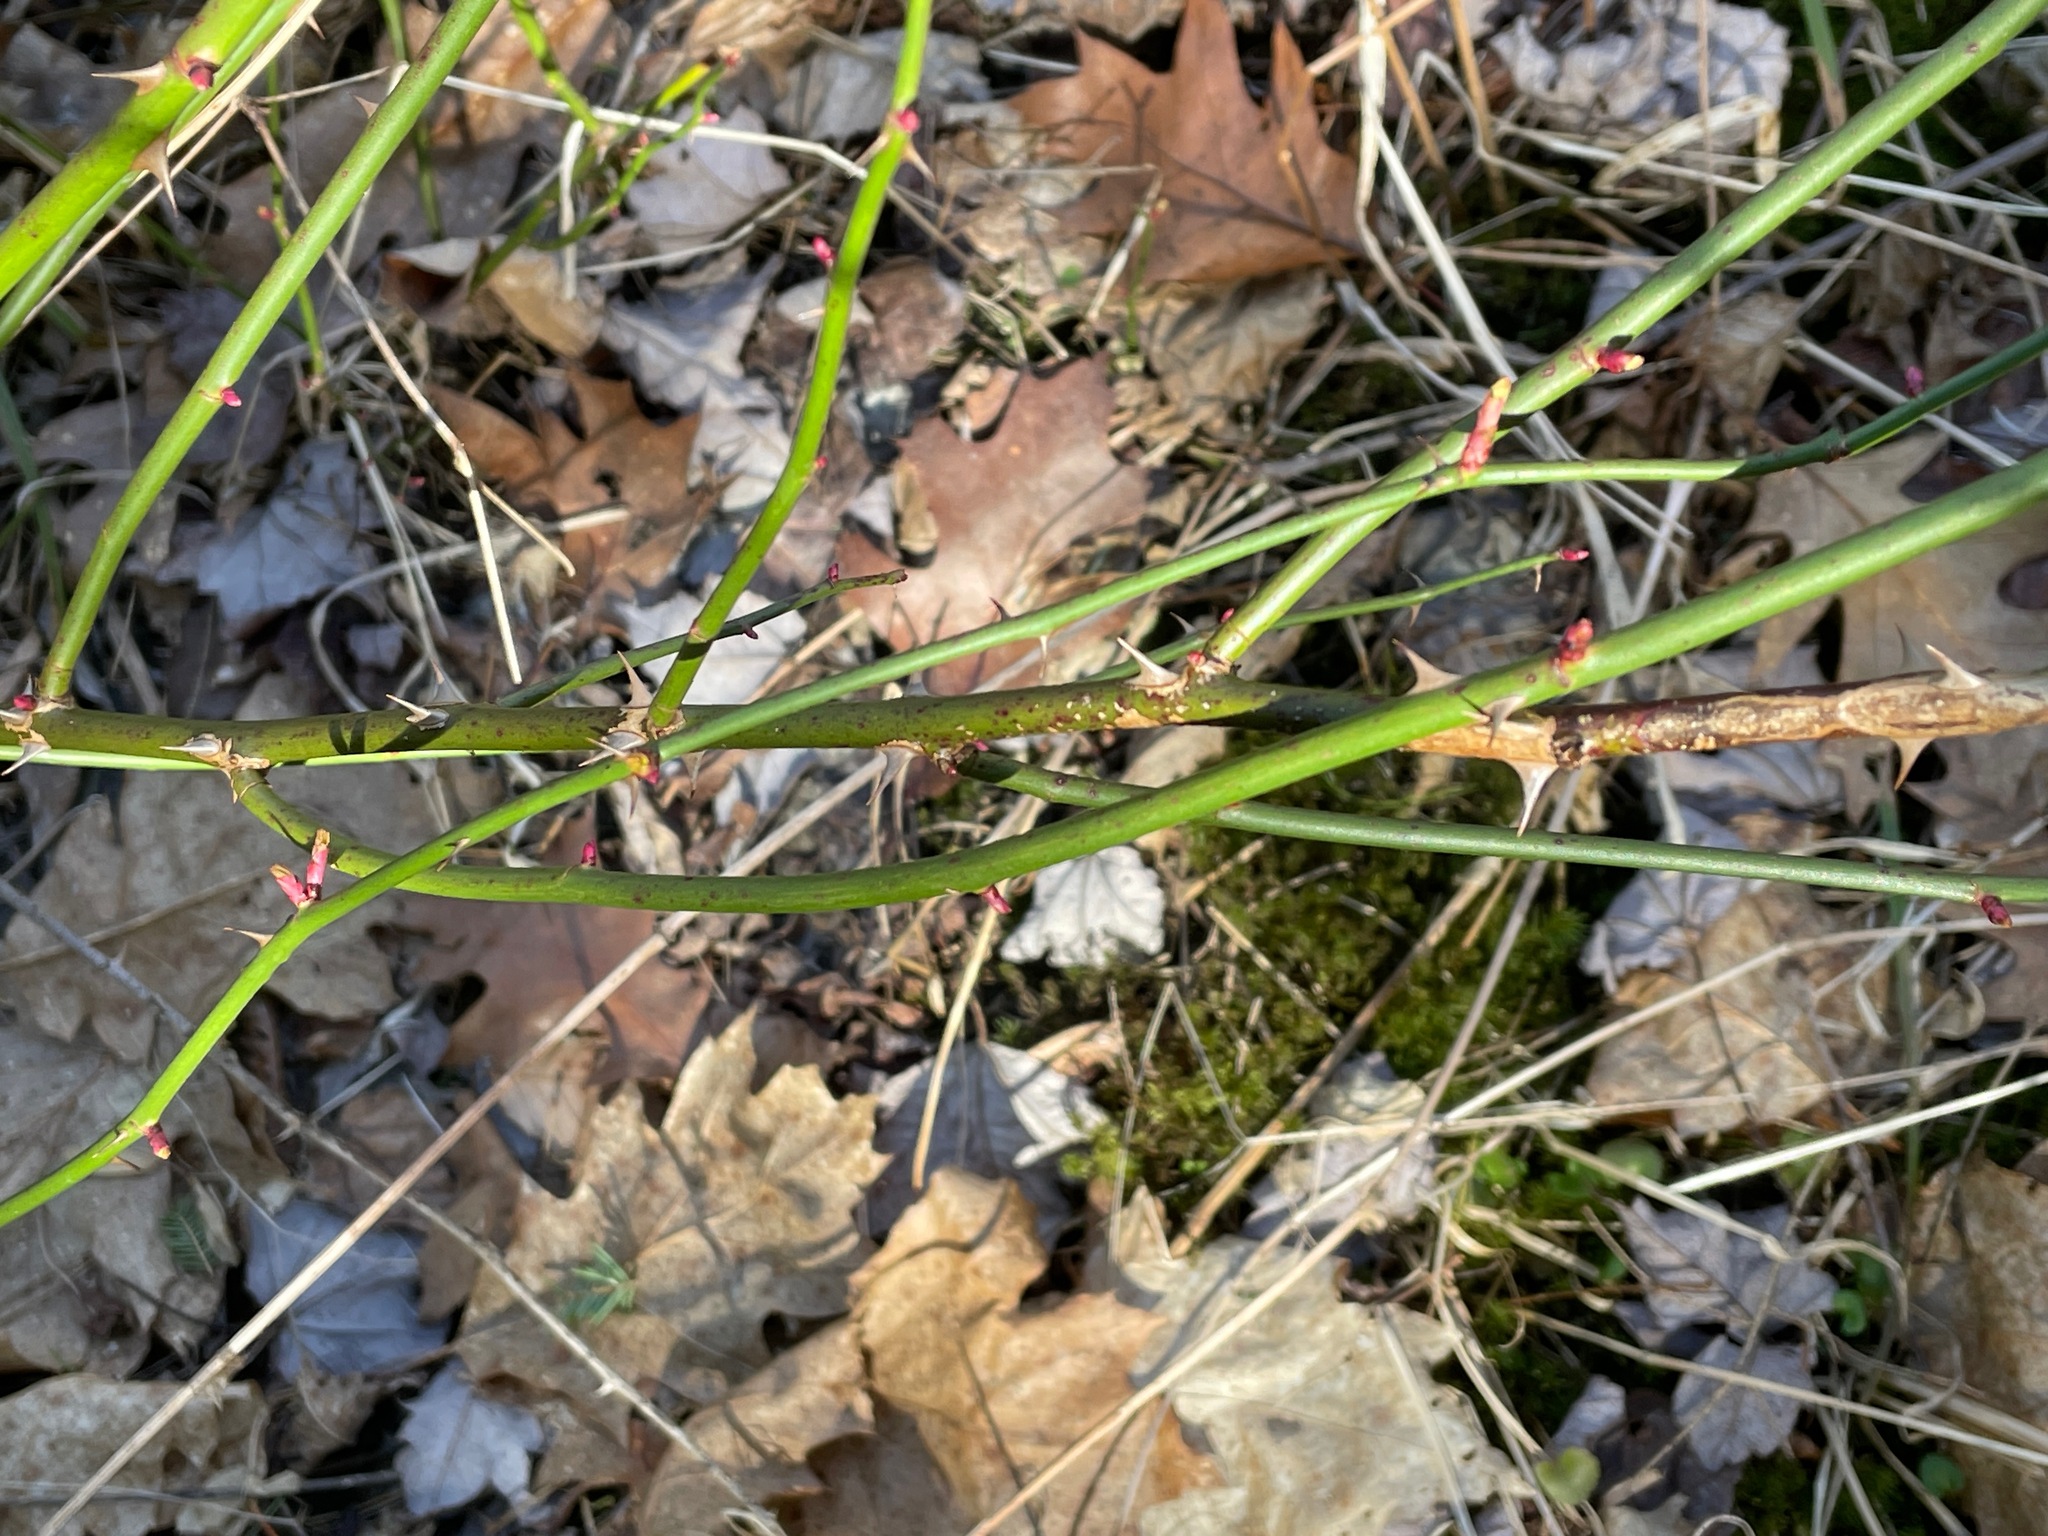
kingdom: Plantae
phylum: Tracheophyta
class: Magnoliopsida
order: Rosales
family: Rosaceae
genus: Rosa
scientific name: Rosa multiflora
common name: Multiflora rose
